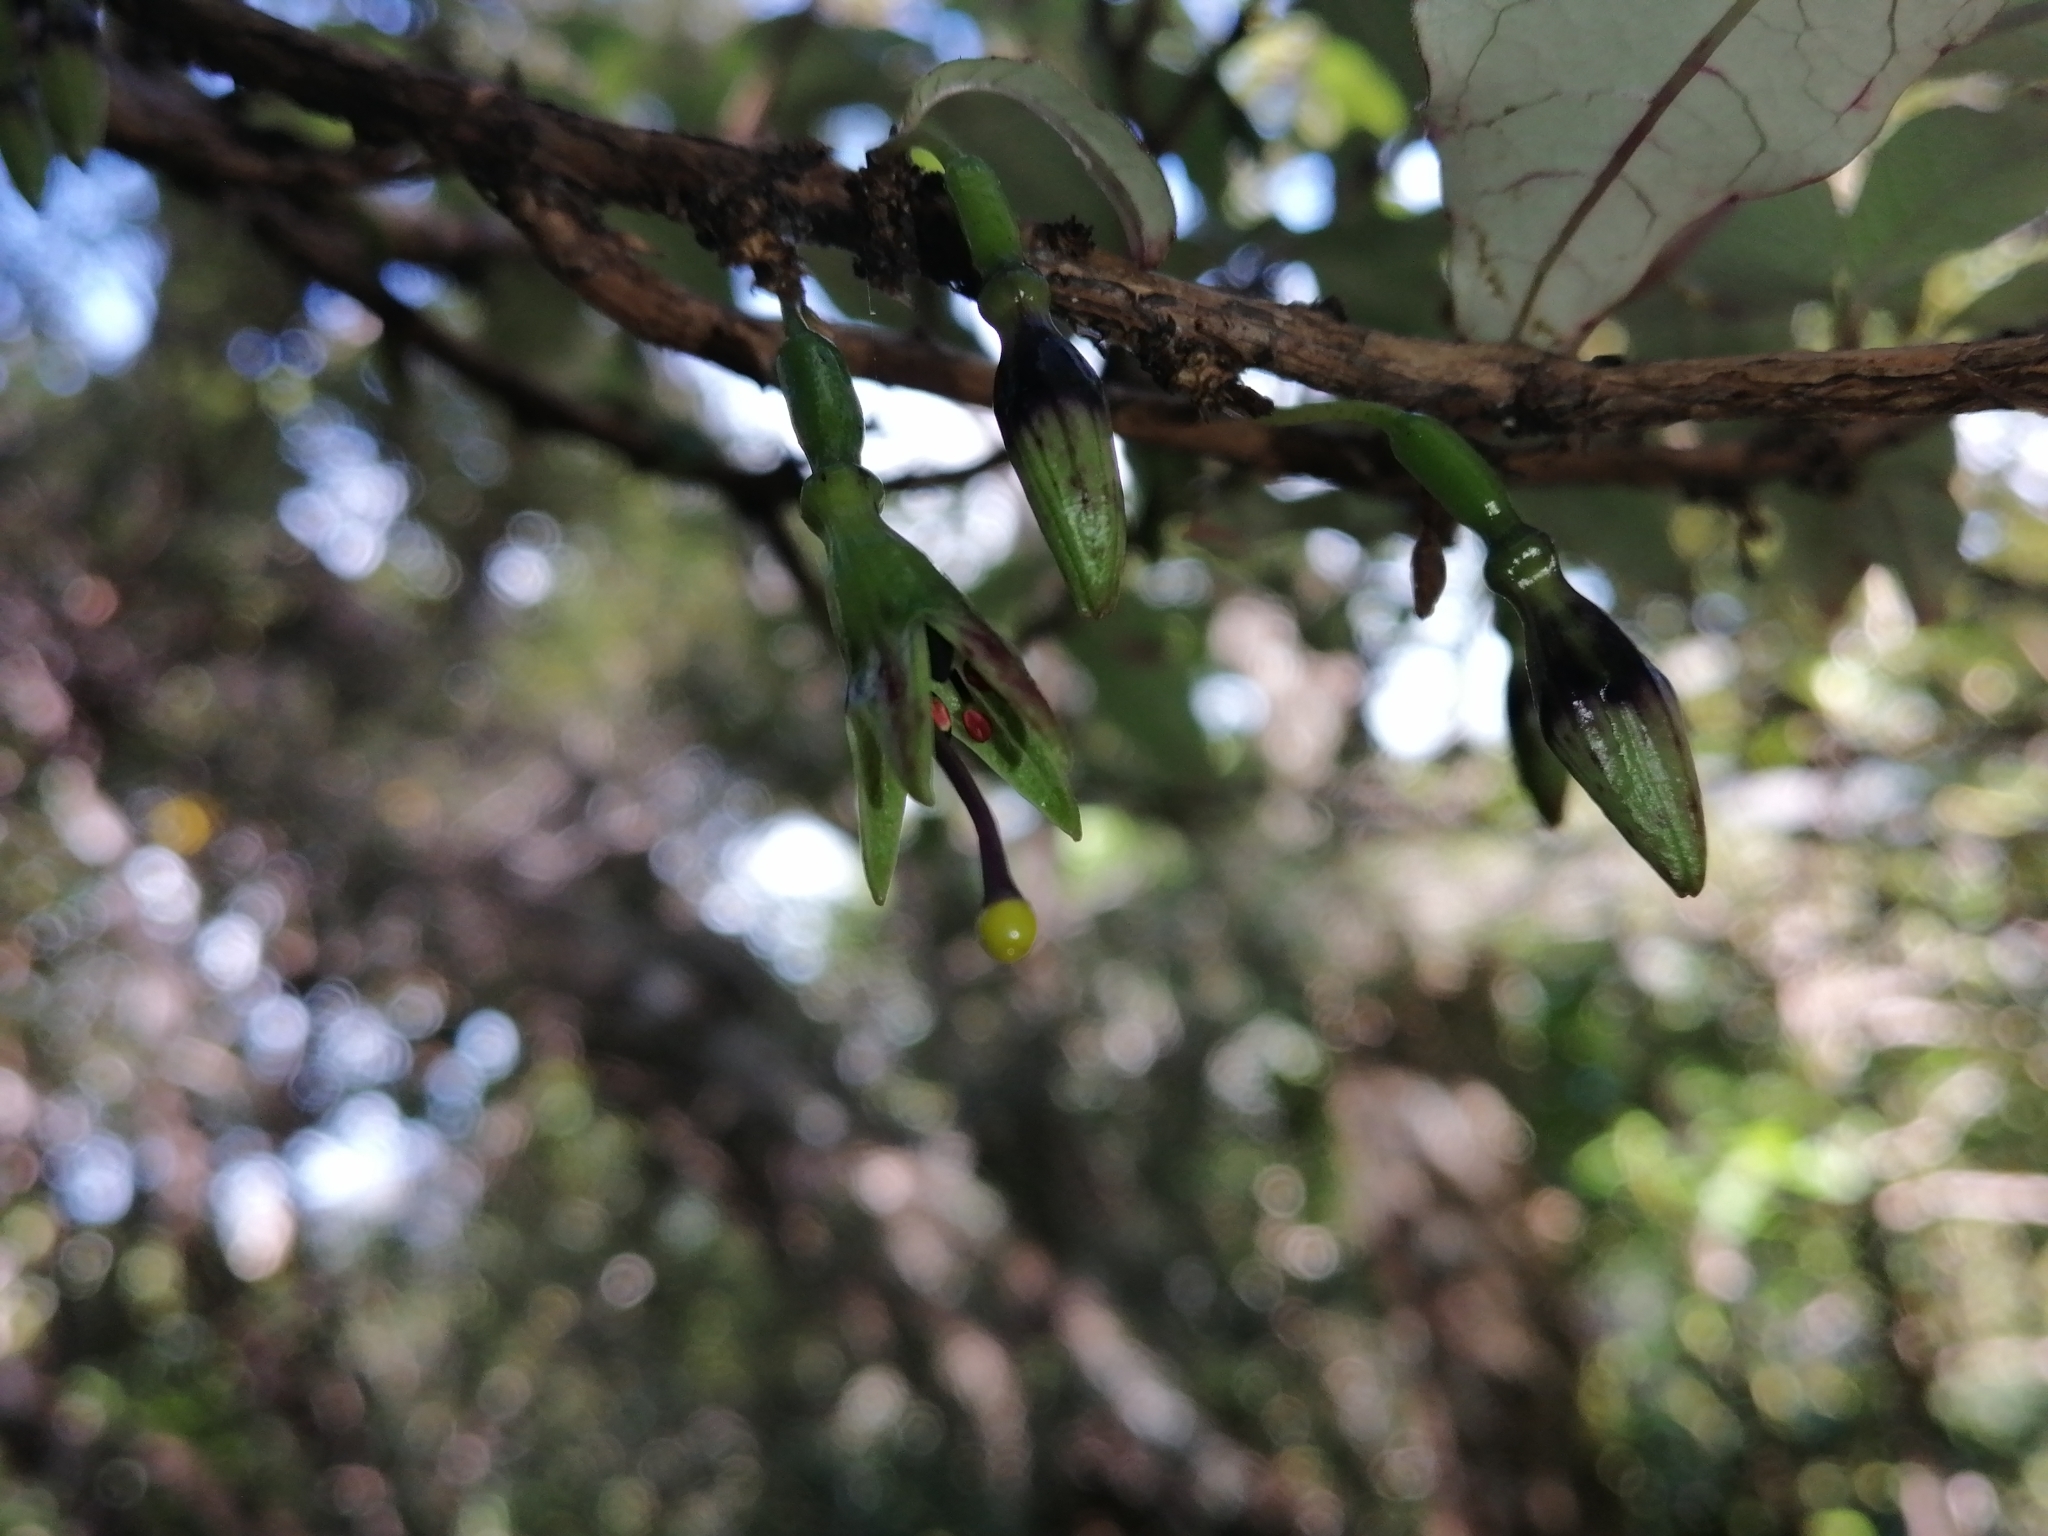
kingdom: Plantae
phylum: Tracheophyta
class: Magnoliopsida
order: Myrtales
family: Onagraceae
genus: Fuchsia
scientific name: Fuchsia excorticata
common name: Tree fuchsia
